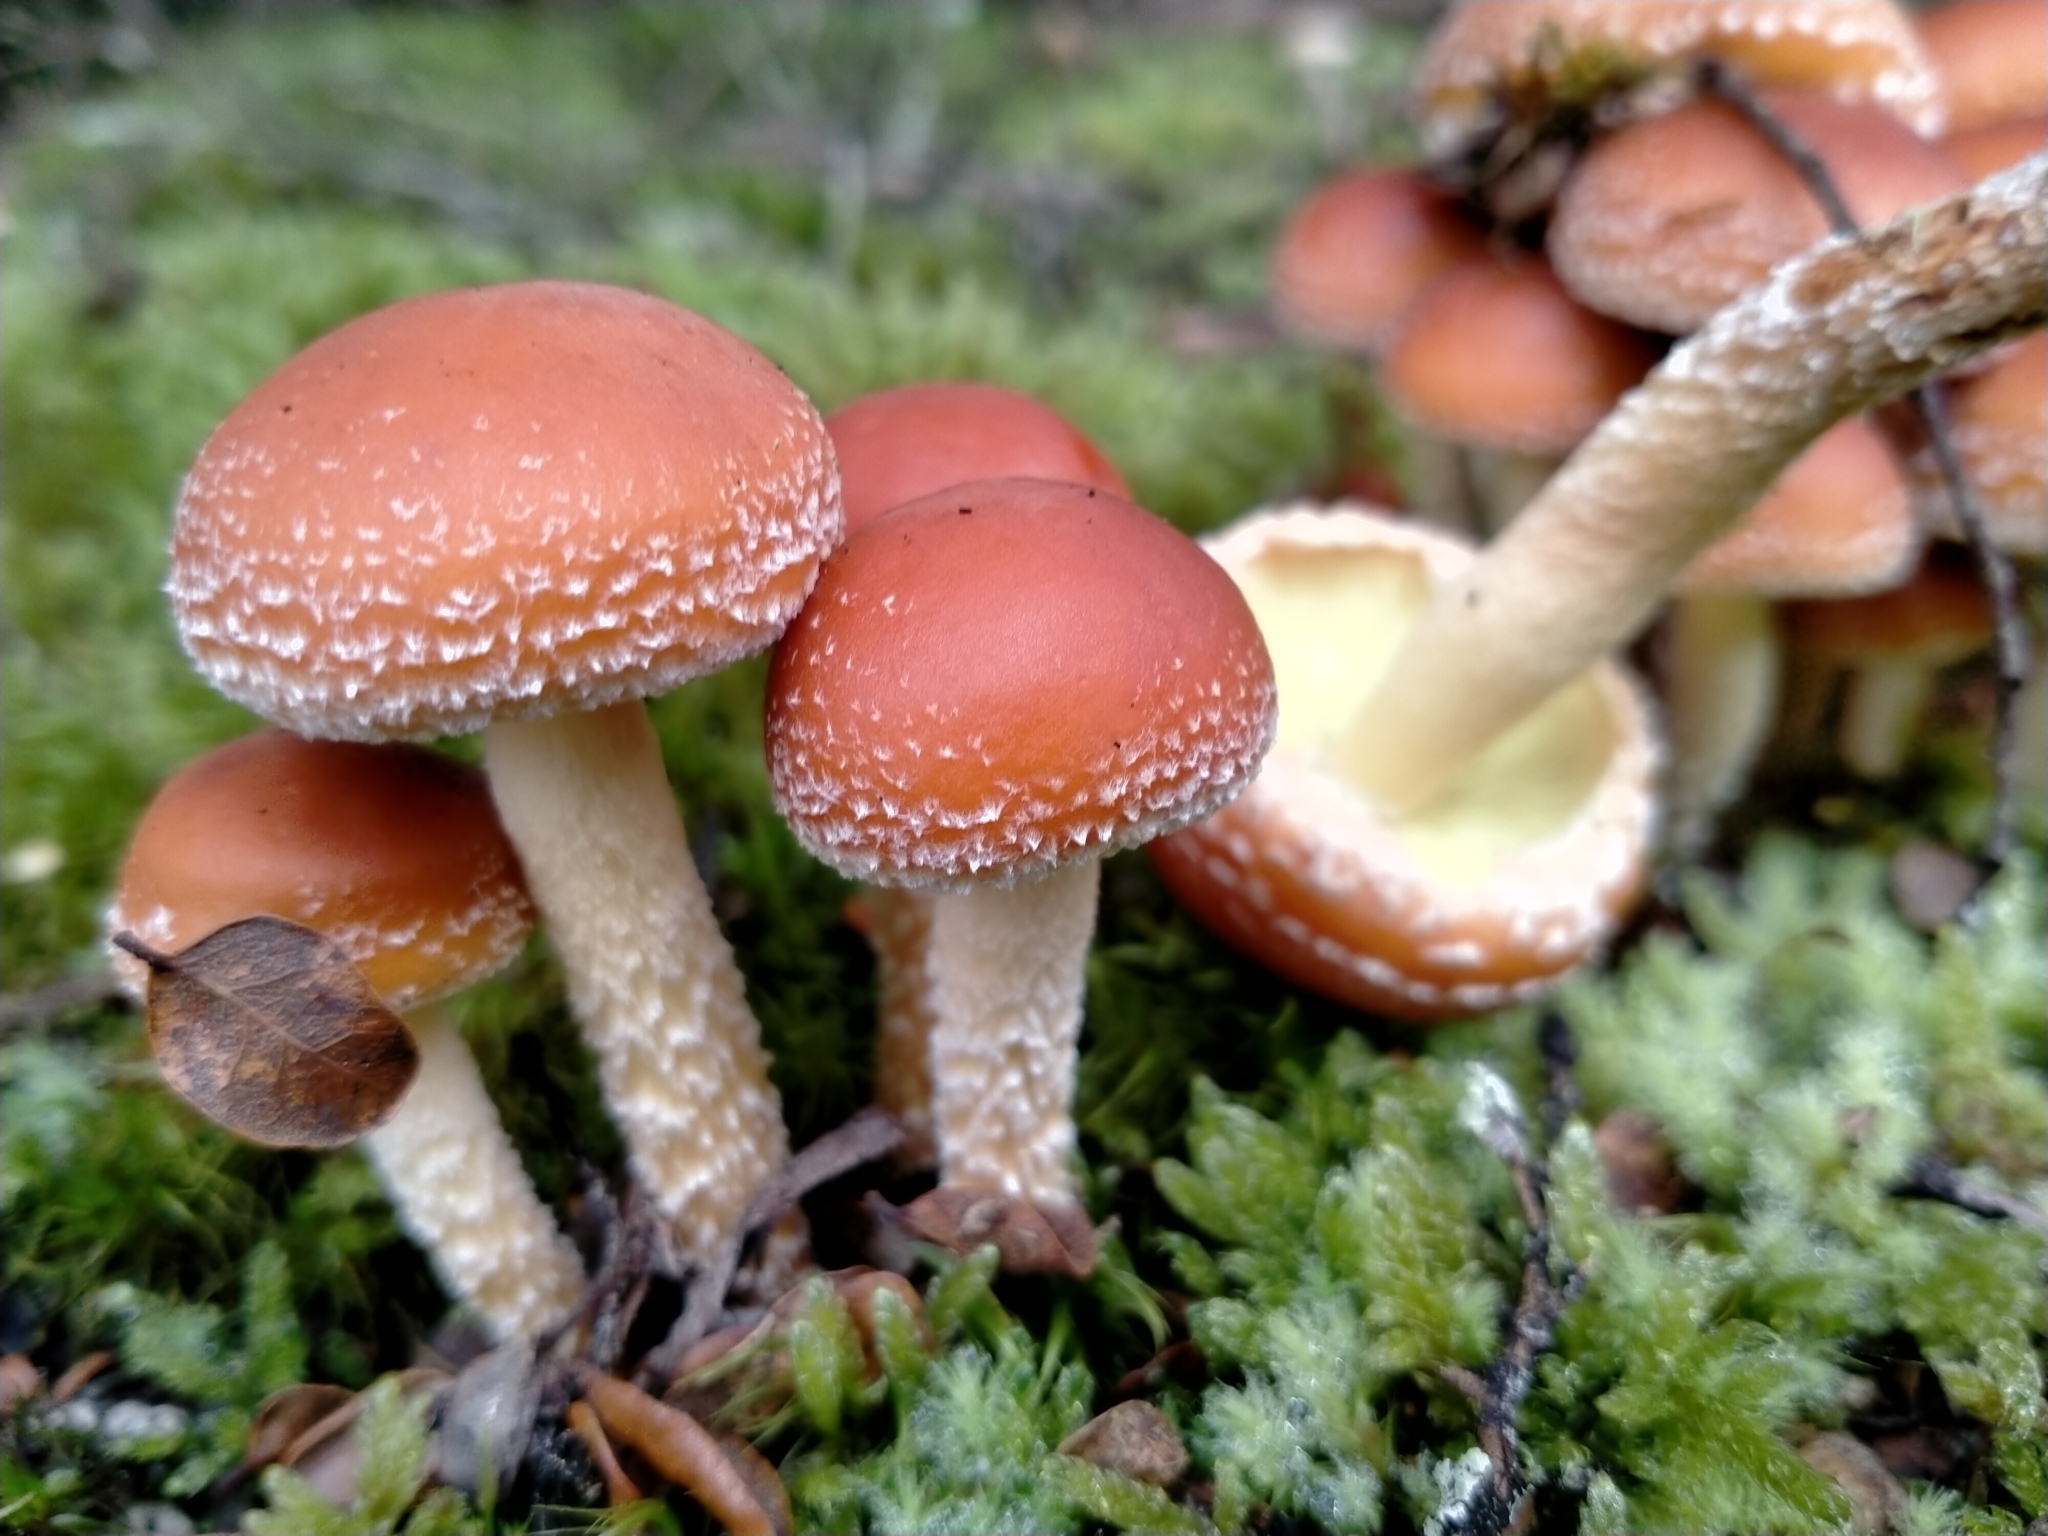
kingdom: Fungi
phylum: Basidiomycota
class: Agaricomycetes
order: Agaricales
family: Strophariaceae
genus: Hypholoma
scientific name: Hypholoma australianum
